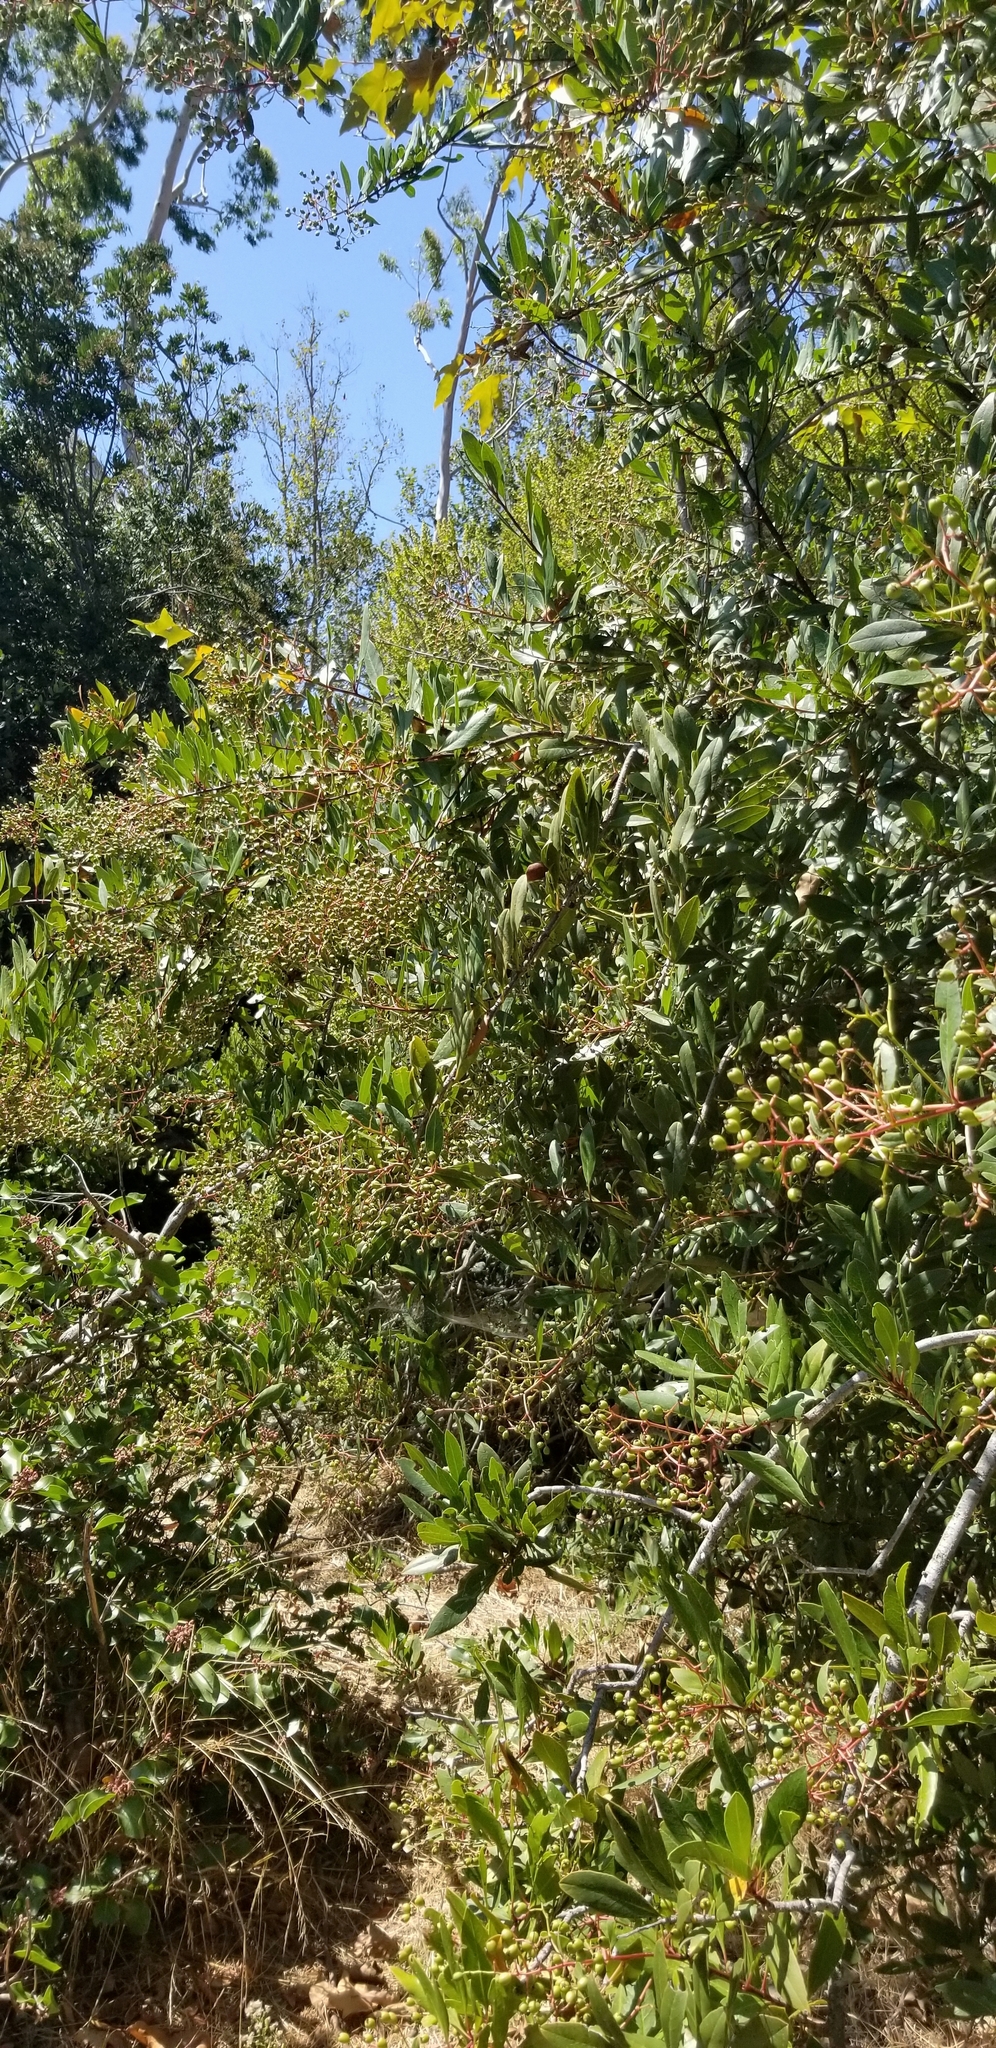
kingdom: Plantae
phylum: Tracheophyta
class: Magnoliopsida
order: Rosales
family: Rosaceae
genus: Heteromeles
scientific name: Heteromeles arbutifolia
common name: California-holly
